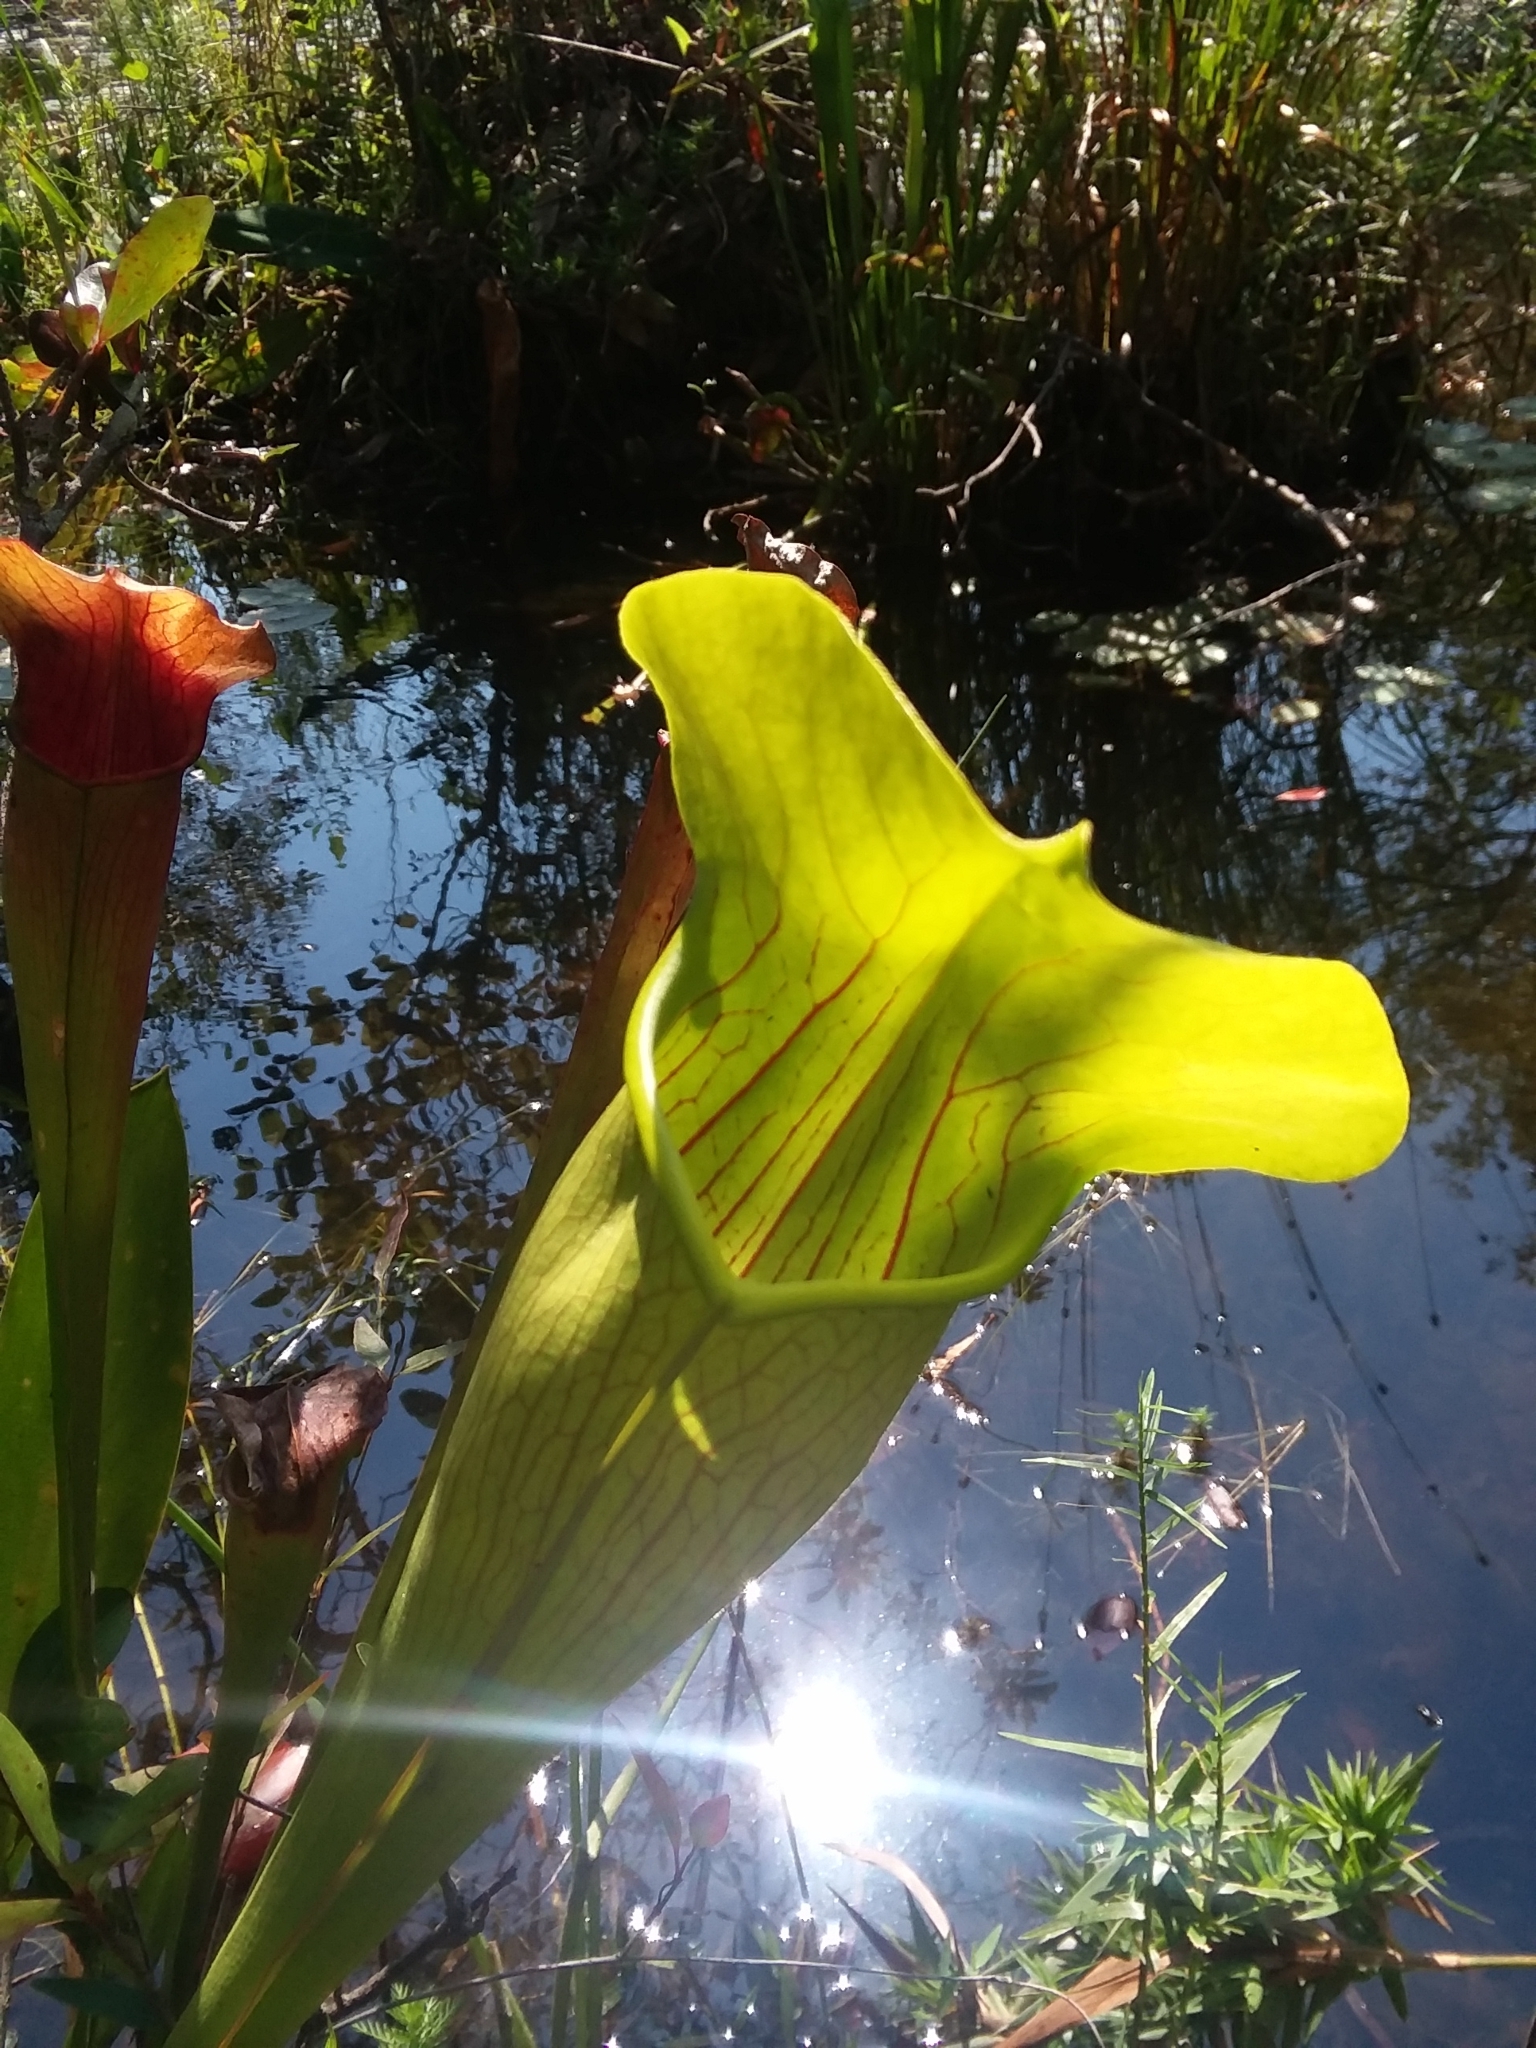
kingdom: Plantae
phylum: Tracheophyta
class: Magnoliopsida
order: Ericales
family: Sarraceniaceae
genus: Sarracenia
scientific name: Sarracenia alata
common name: Yellow trumpets
